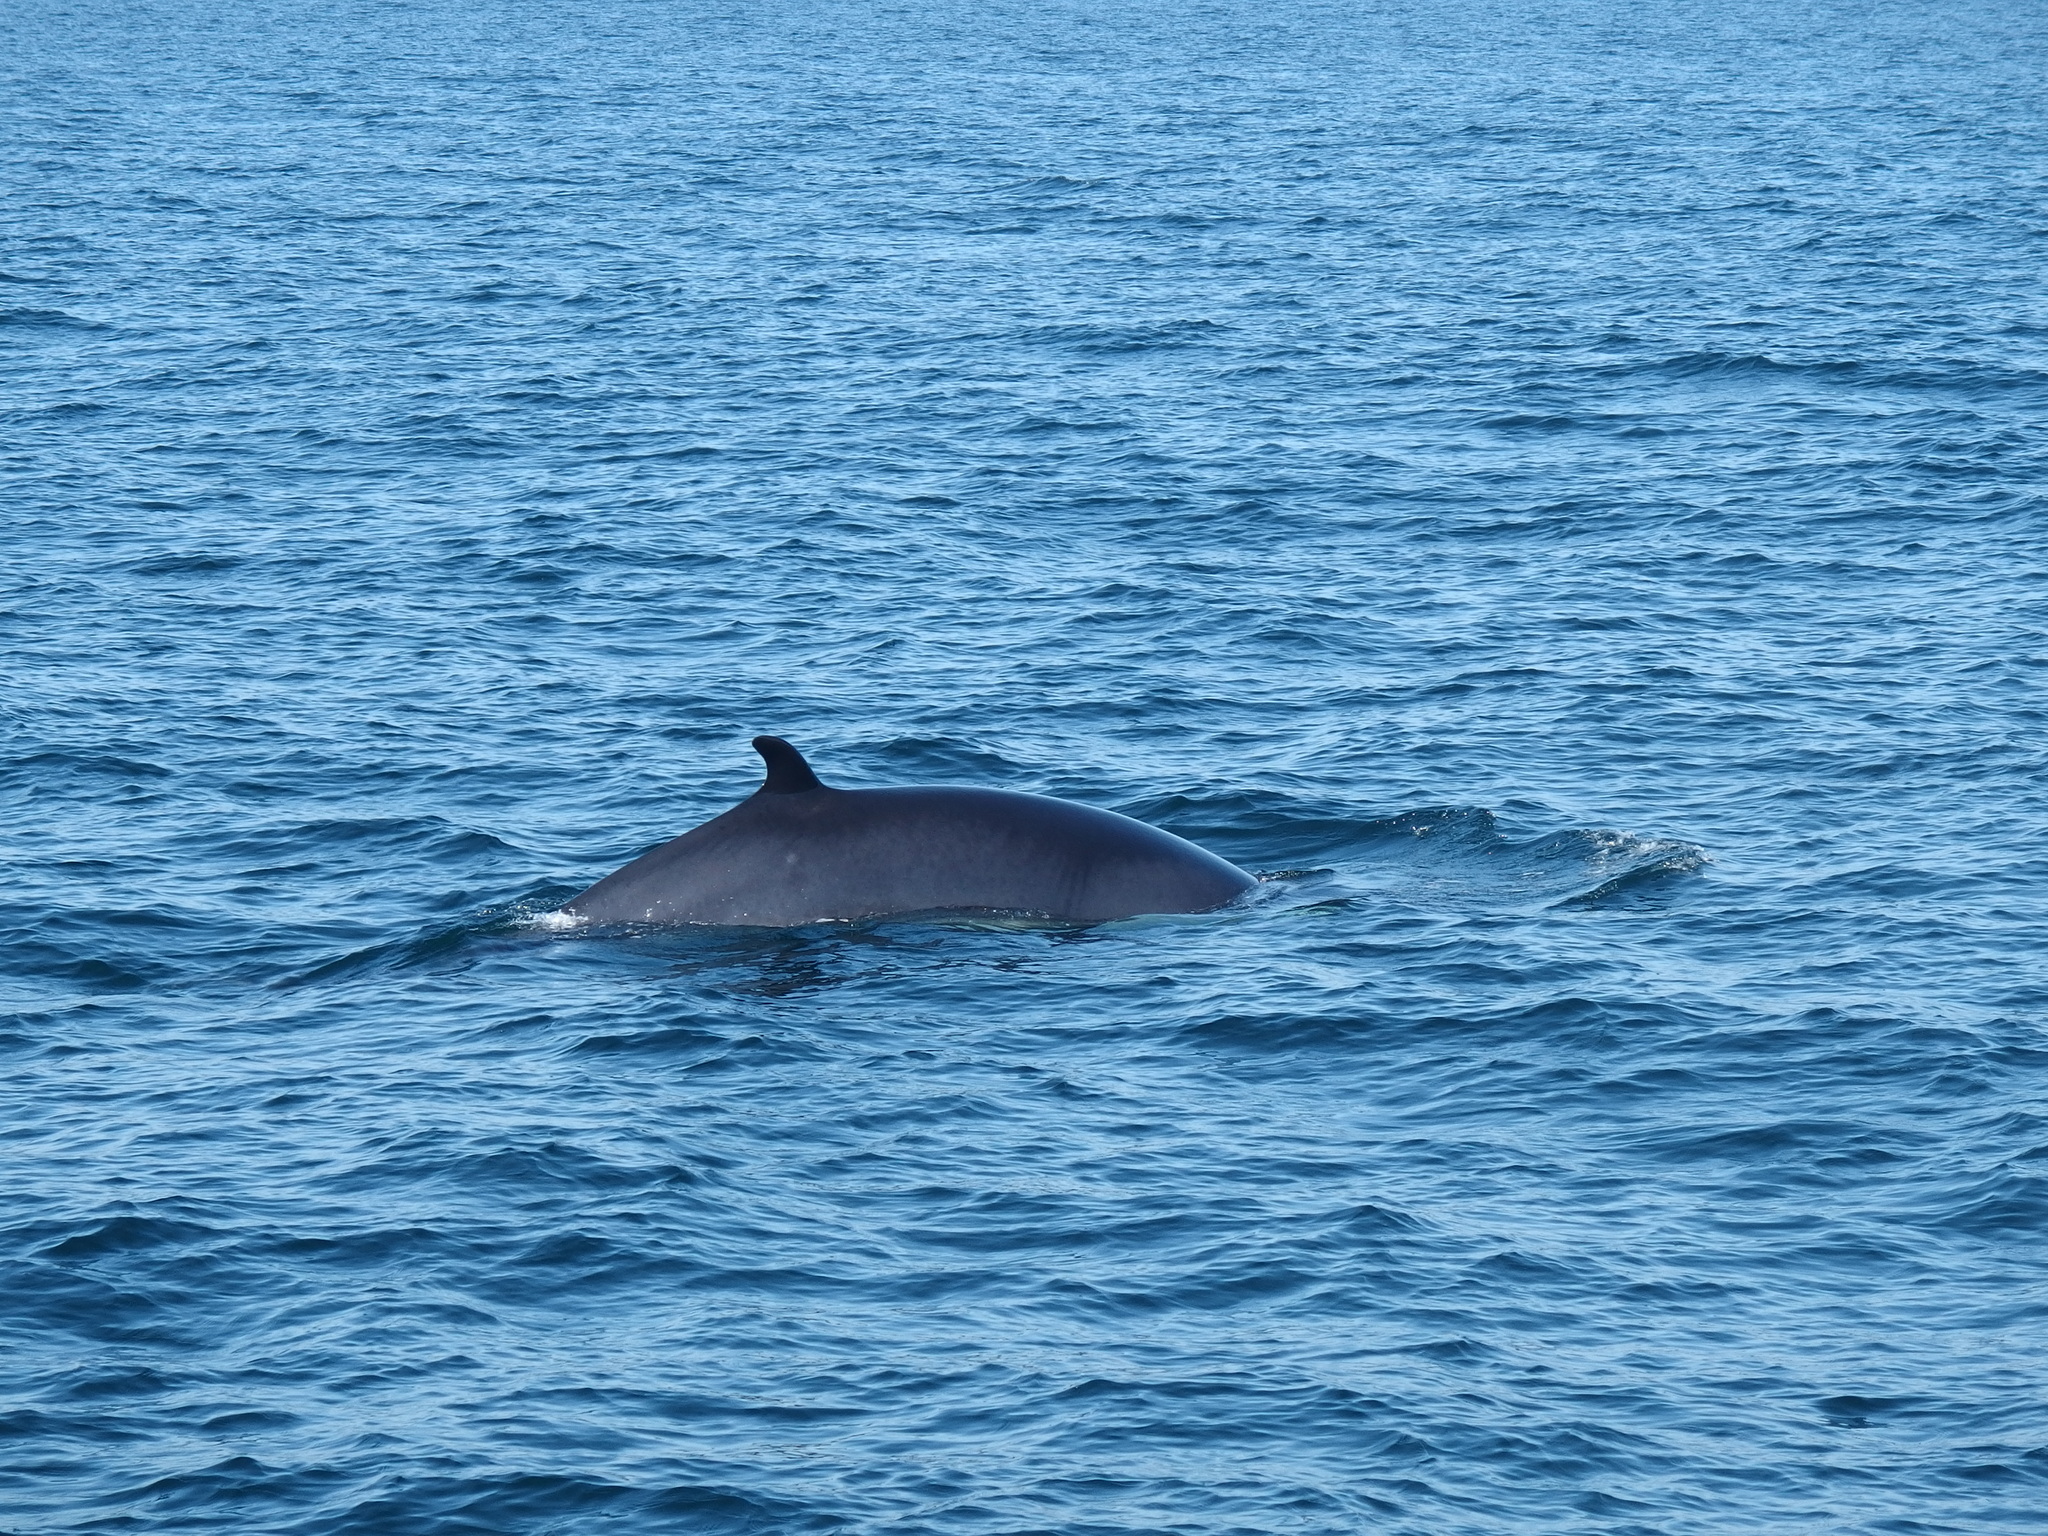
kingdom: Animalia
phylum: Chordata
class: Mammalia
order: Cetacea
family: Balaenopteridae
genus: Balaenoptera
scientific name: Balaenoptera acutorostrata
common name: Common minke whale
